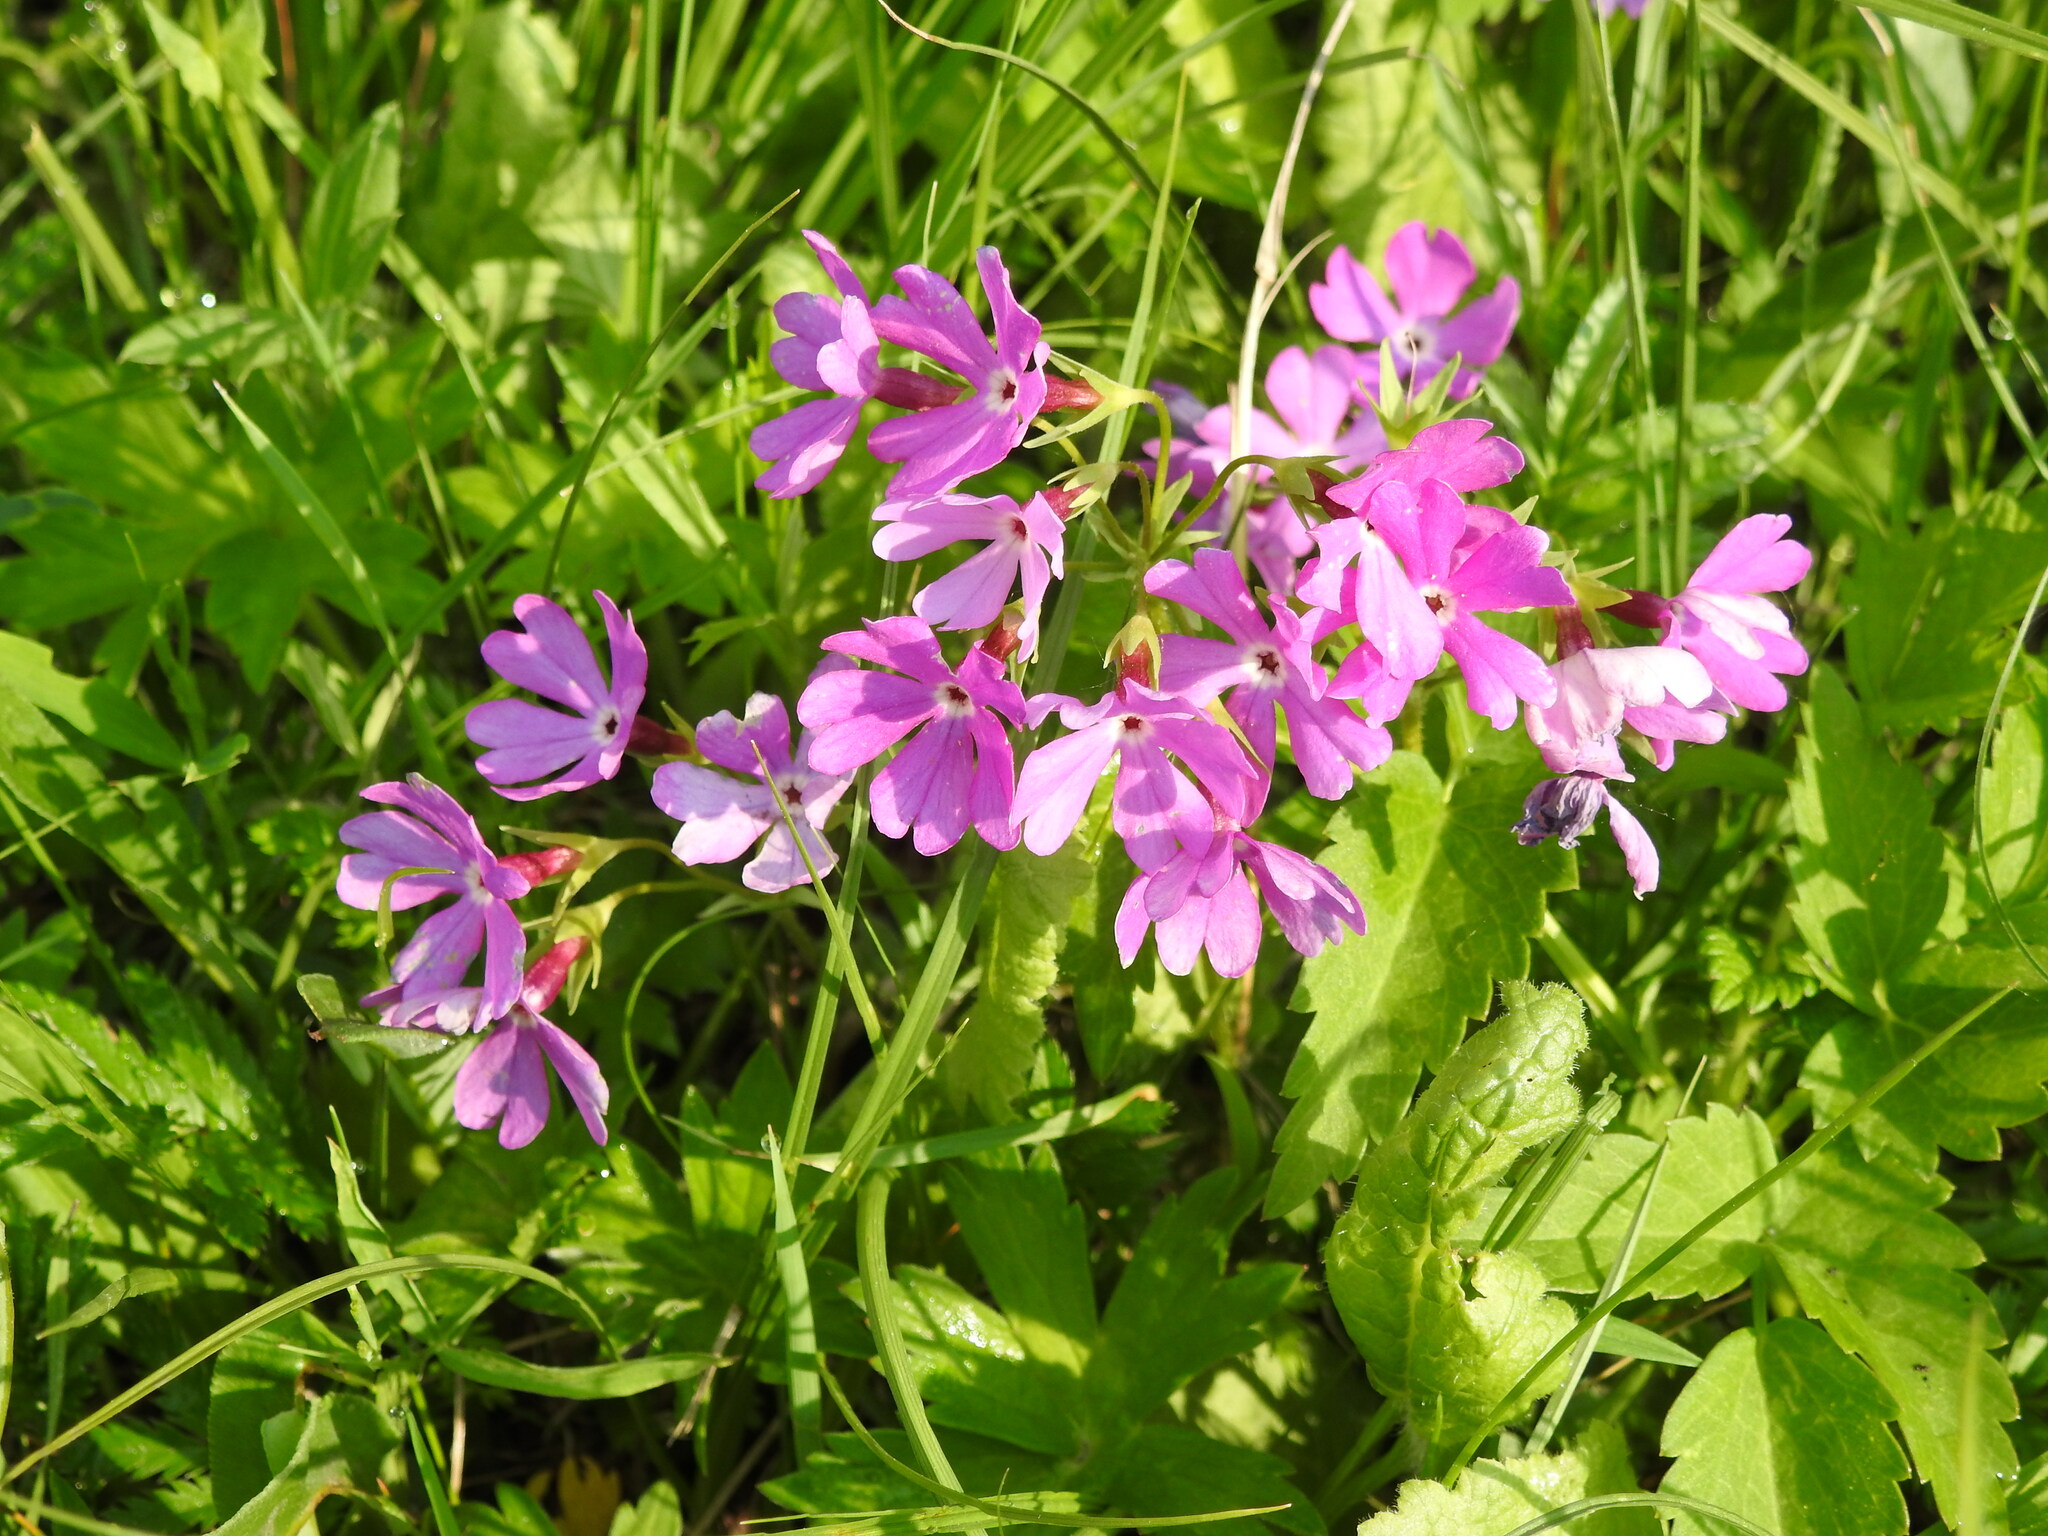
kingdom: Plantae
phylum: Tracheophyta
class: Magnoliopsida
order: Ericales
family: Primulaceae
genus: Primula
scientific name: Primula sieboldii
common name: Japanese primrose
